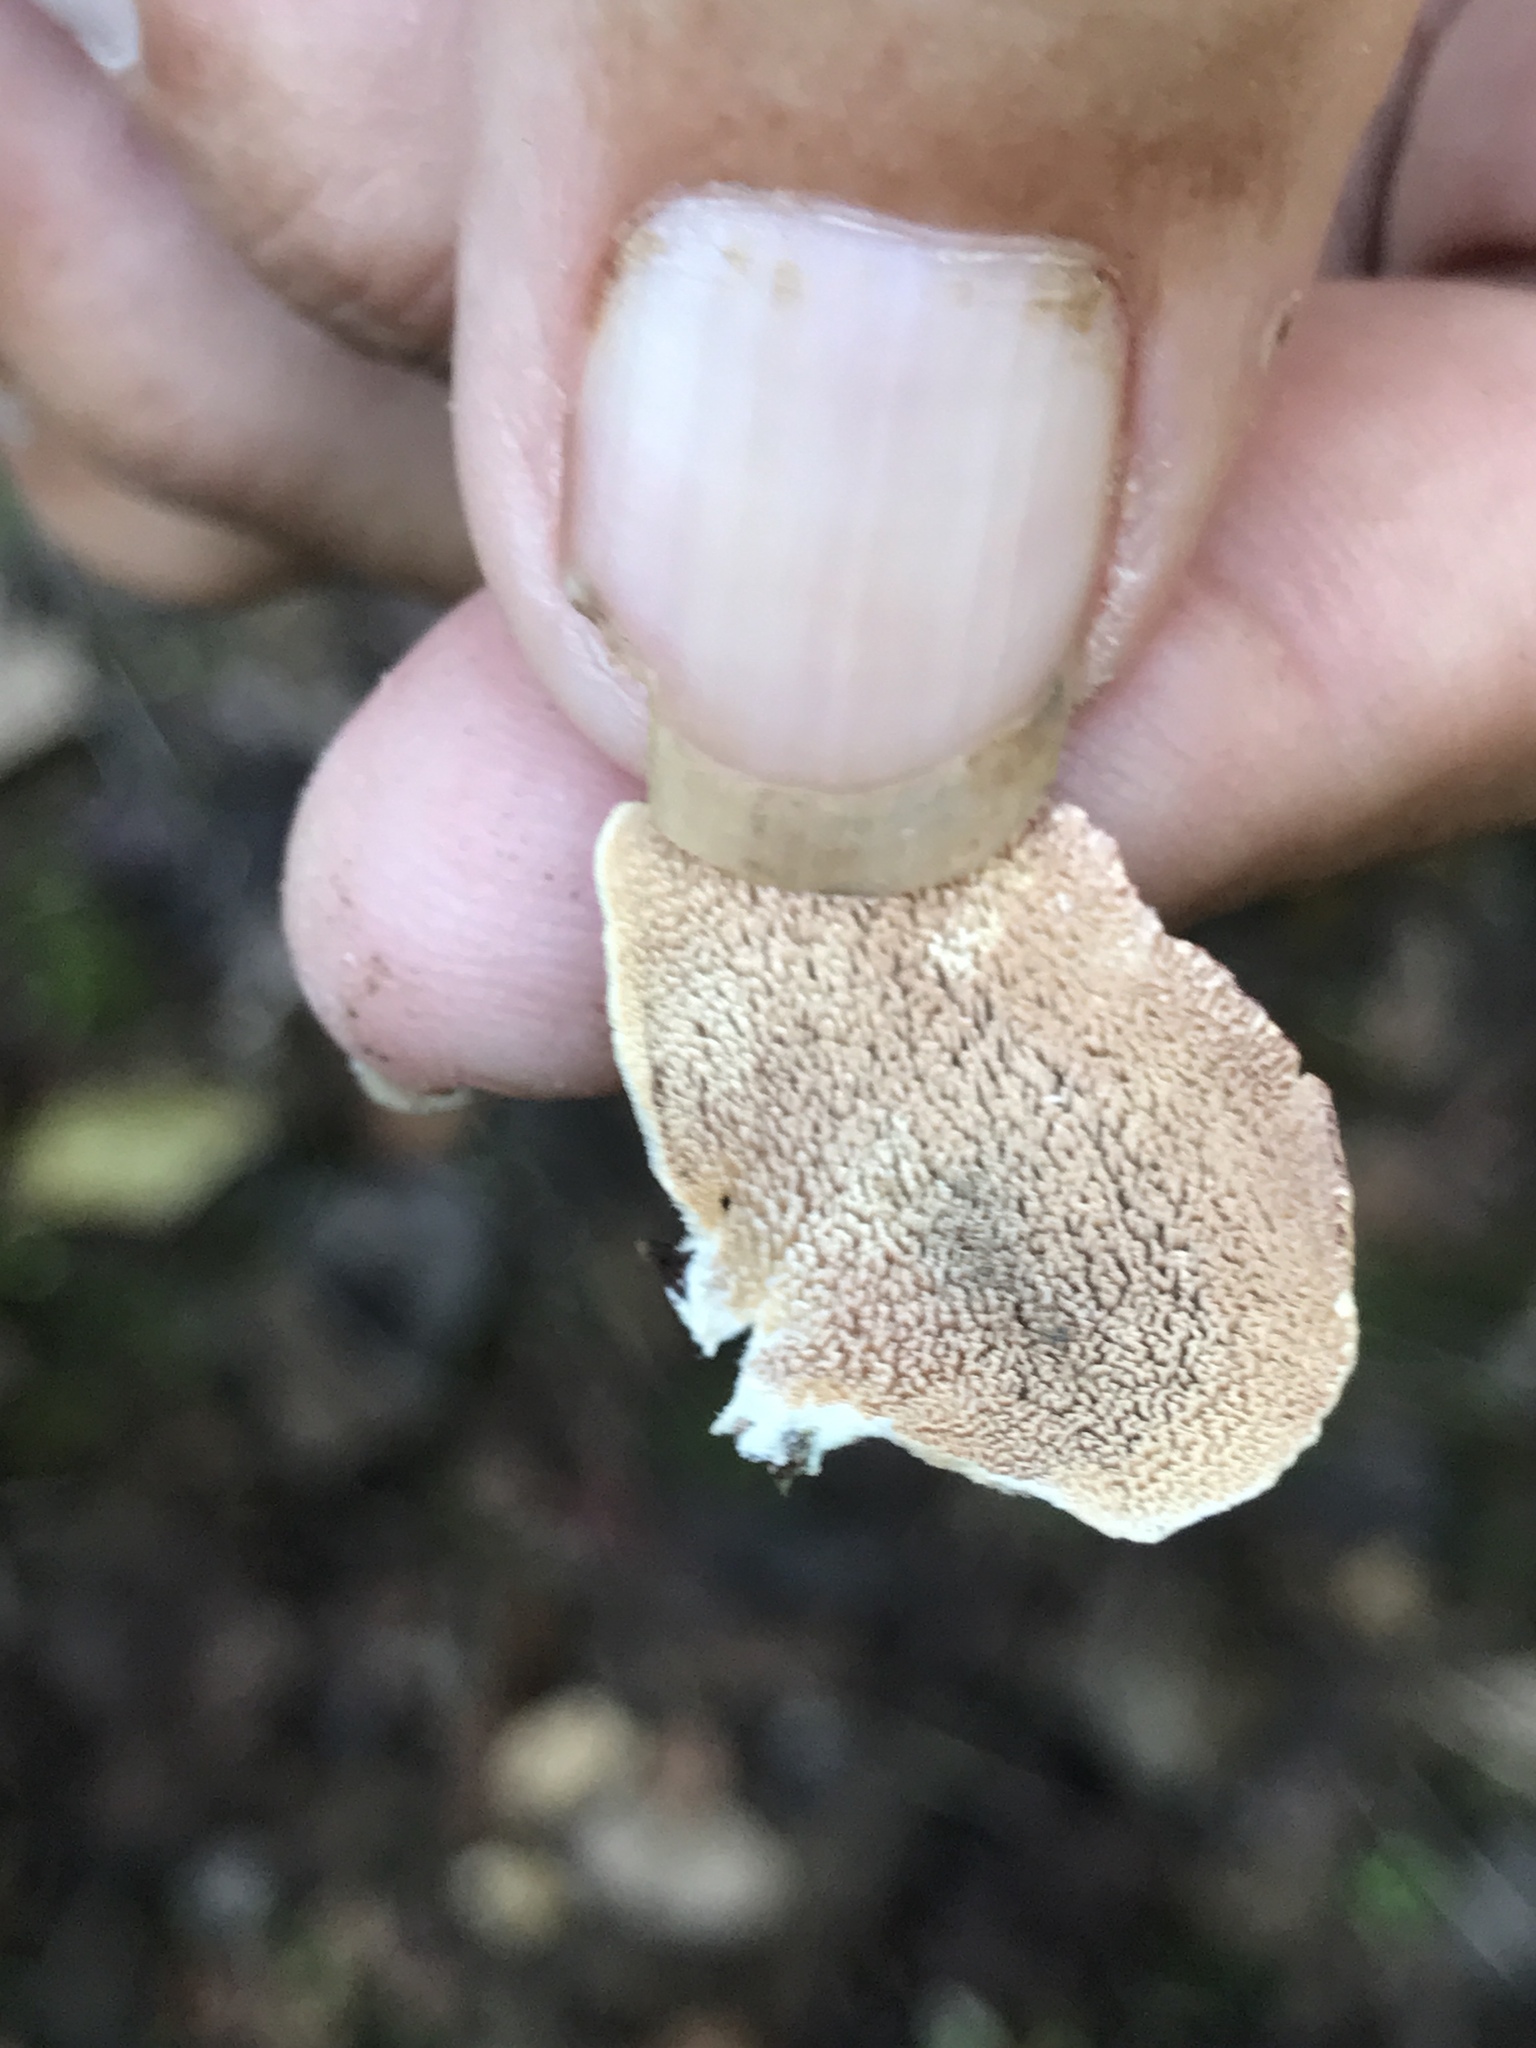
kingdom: Fungi
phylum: Basidiomycota
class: Agaricomycetes
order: Hymenochaetales
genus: Trichaptum
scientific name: Trichaptum biforme
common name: Violet-toothed polypore
